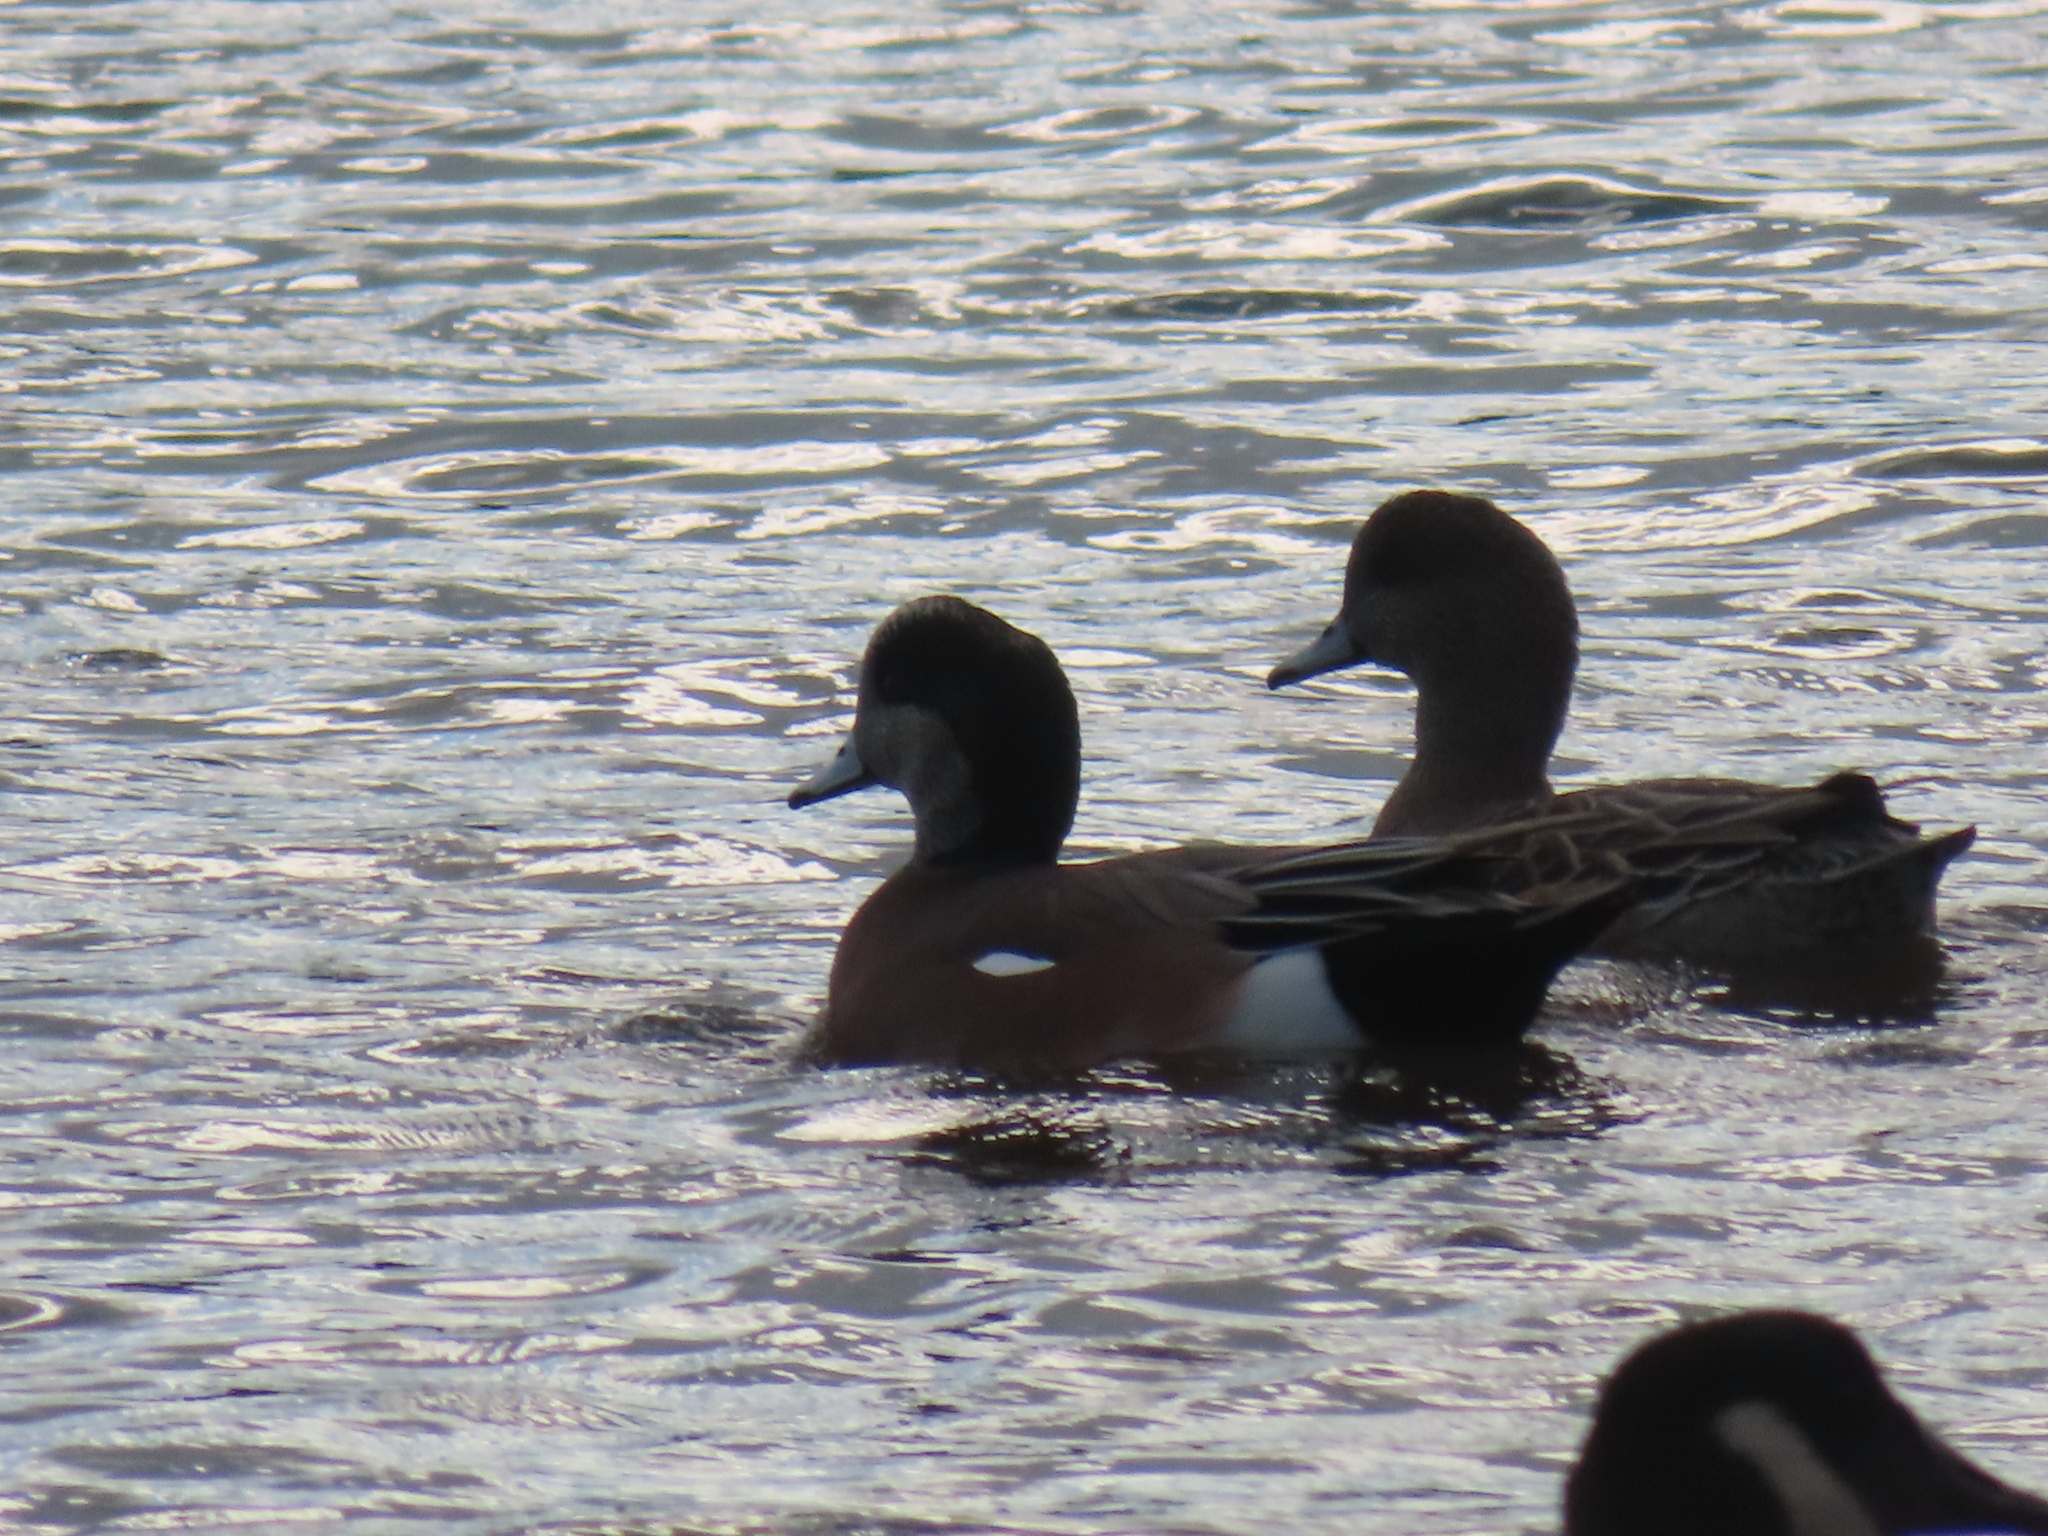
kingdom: Animalia
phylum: Chordata
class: Aves
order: Anseriformes
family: Anatidae
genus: Mareca
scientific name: Mareca americana
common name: American wigeon
